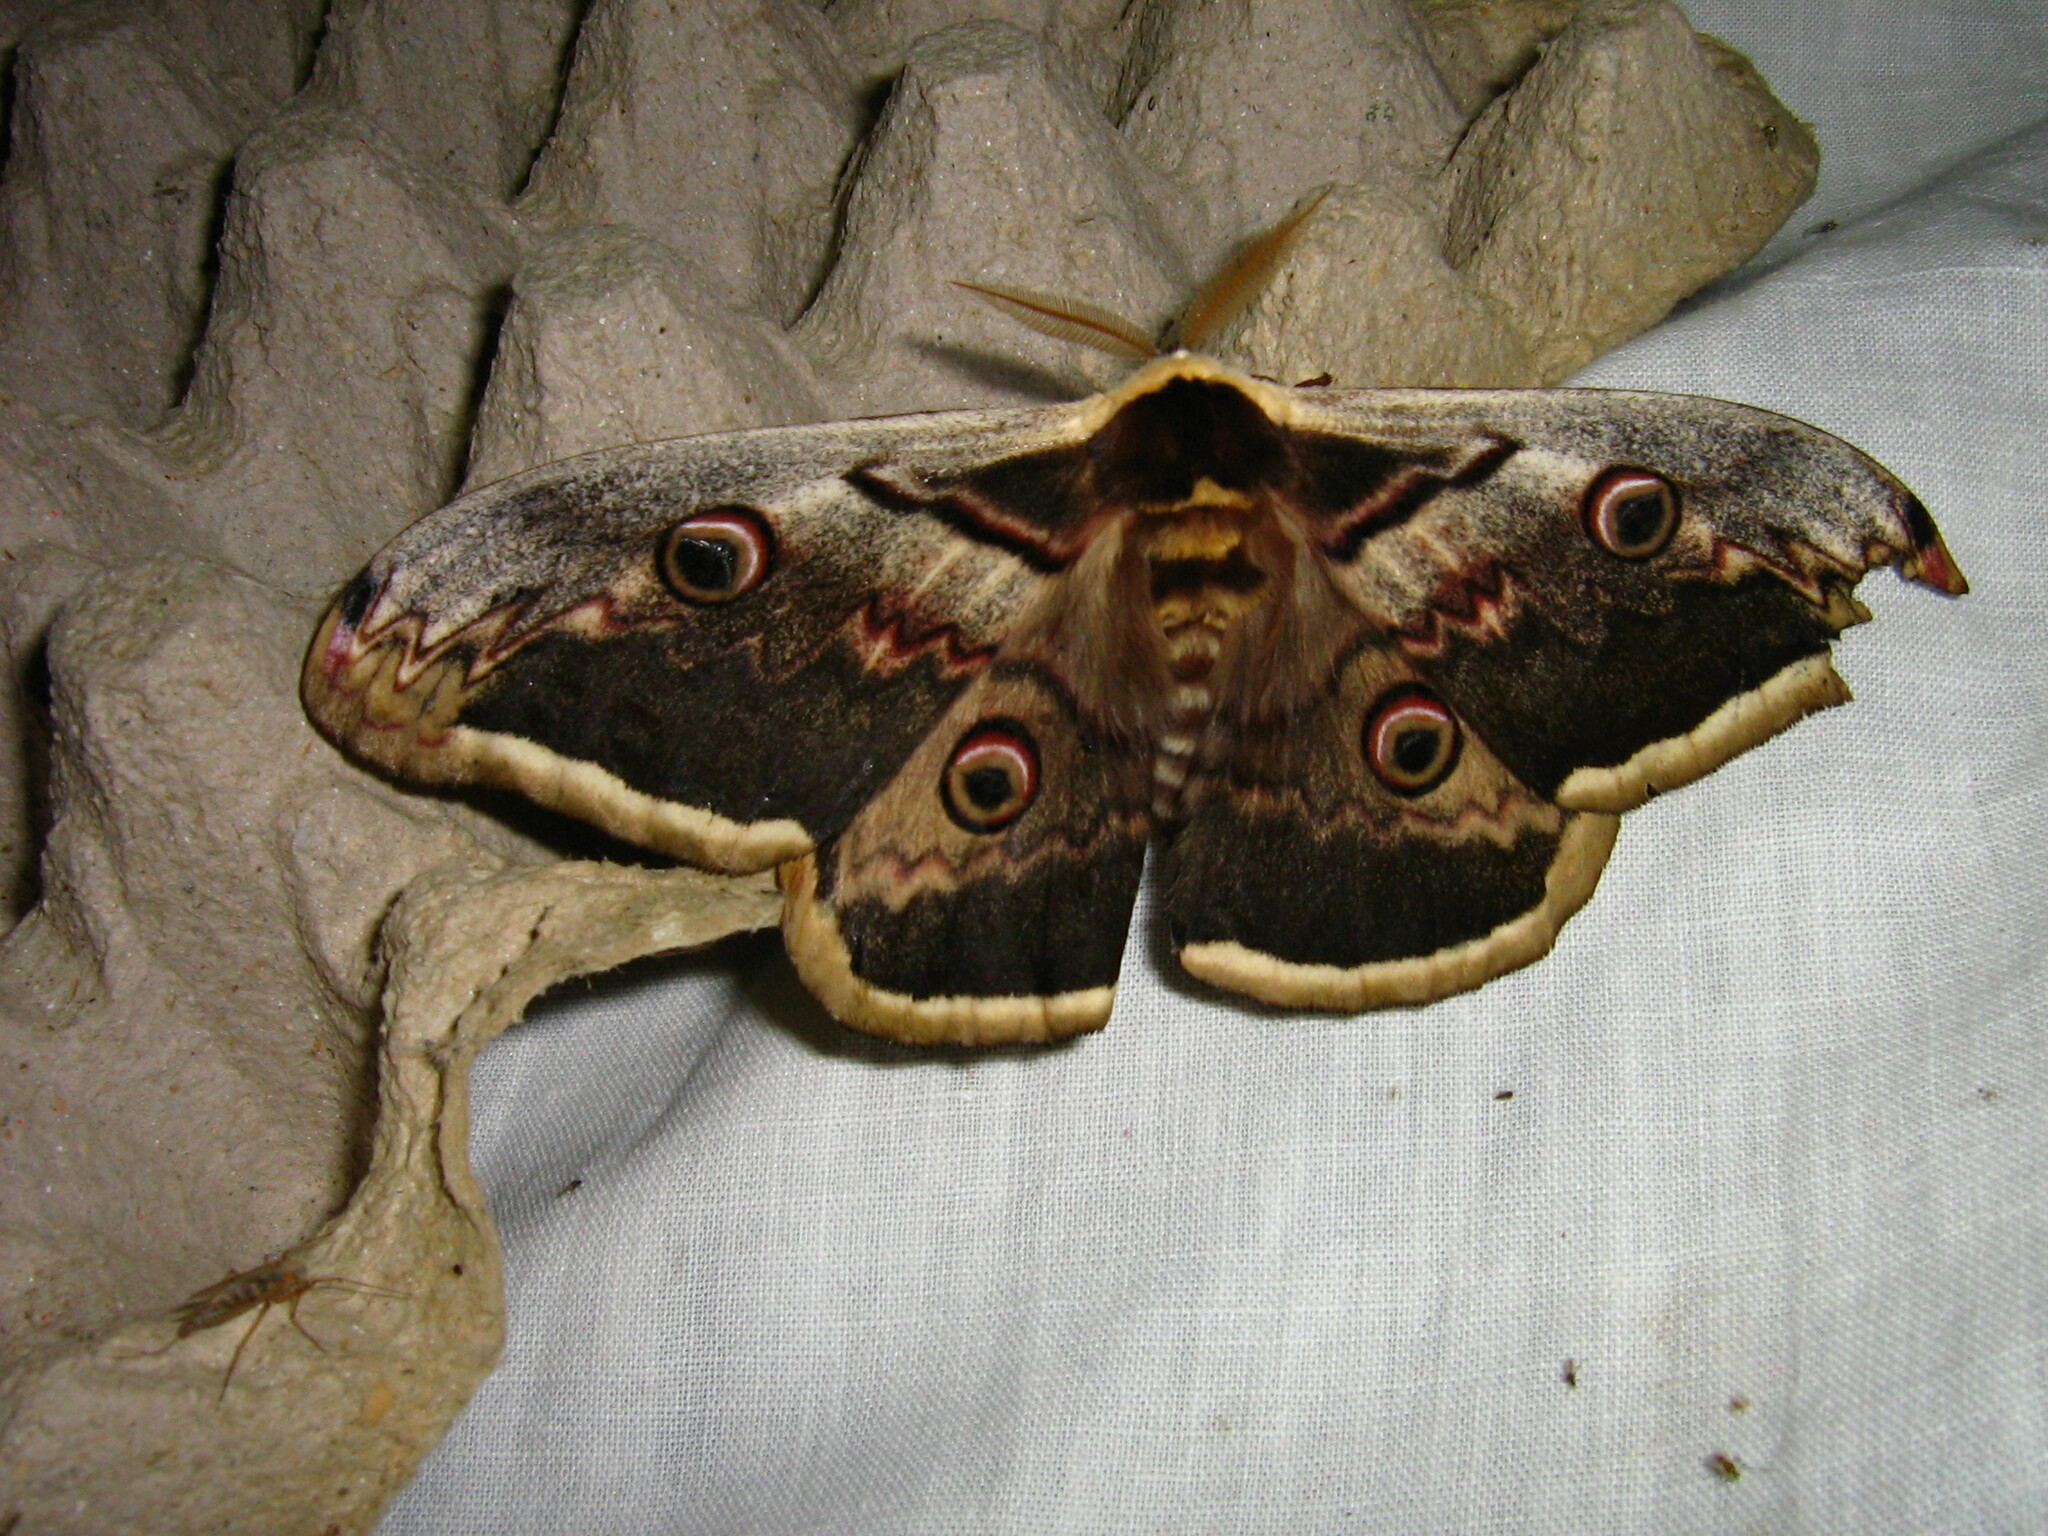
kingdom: Animalia
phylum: Arthropoda
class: Insecta
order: Lepidoptera
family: Saturniidae
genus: Saturnia
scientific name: Saturnia pyri
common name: Great peacock moth
